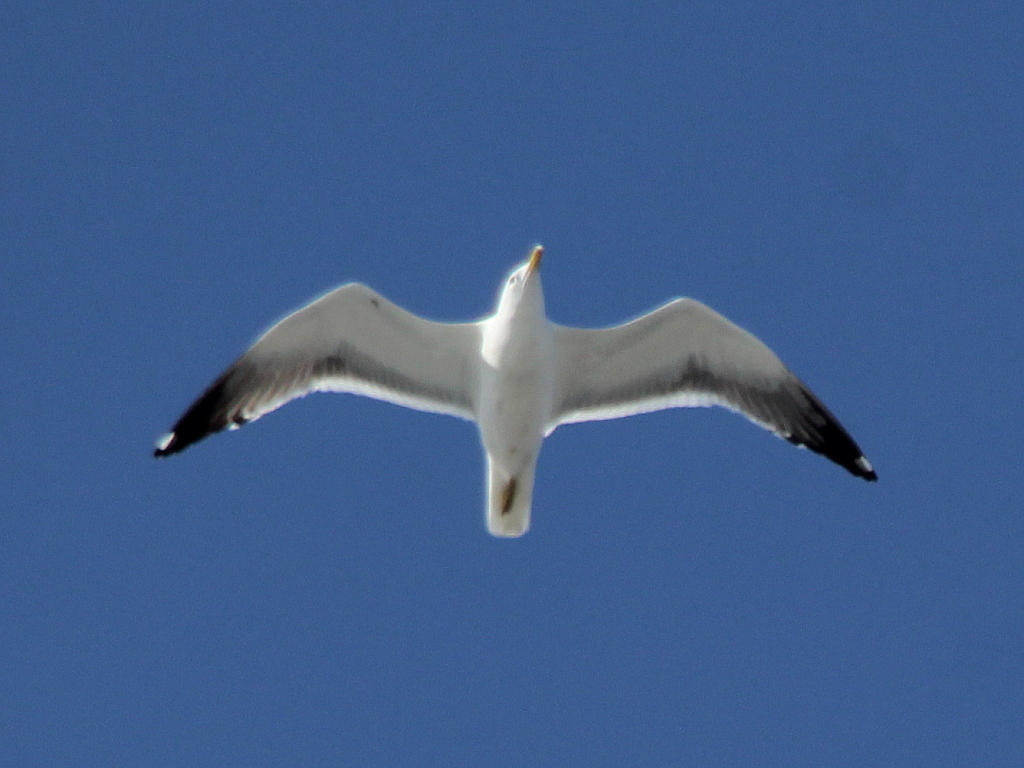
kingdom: Animalia
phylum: Chordata
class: Aves
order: Charadriiformes
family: Laridae
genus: Larus
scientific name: Larus fuscus
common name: Lesser black-backed gull
